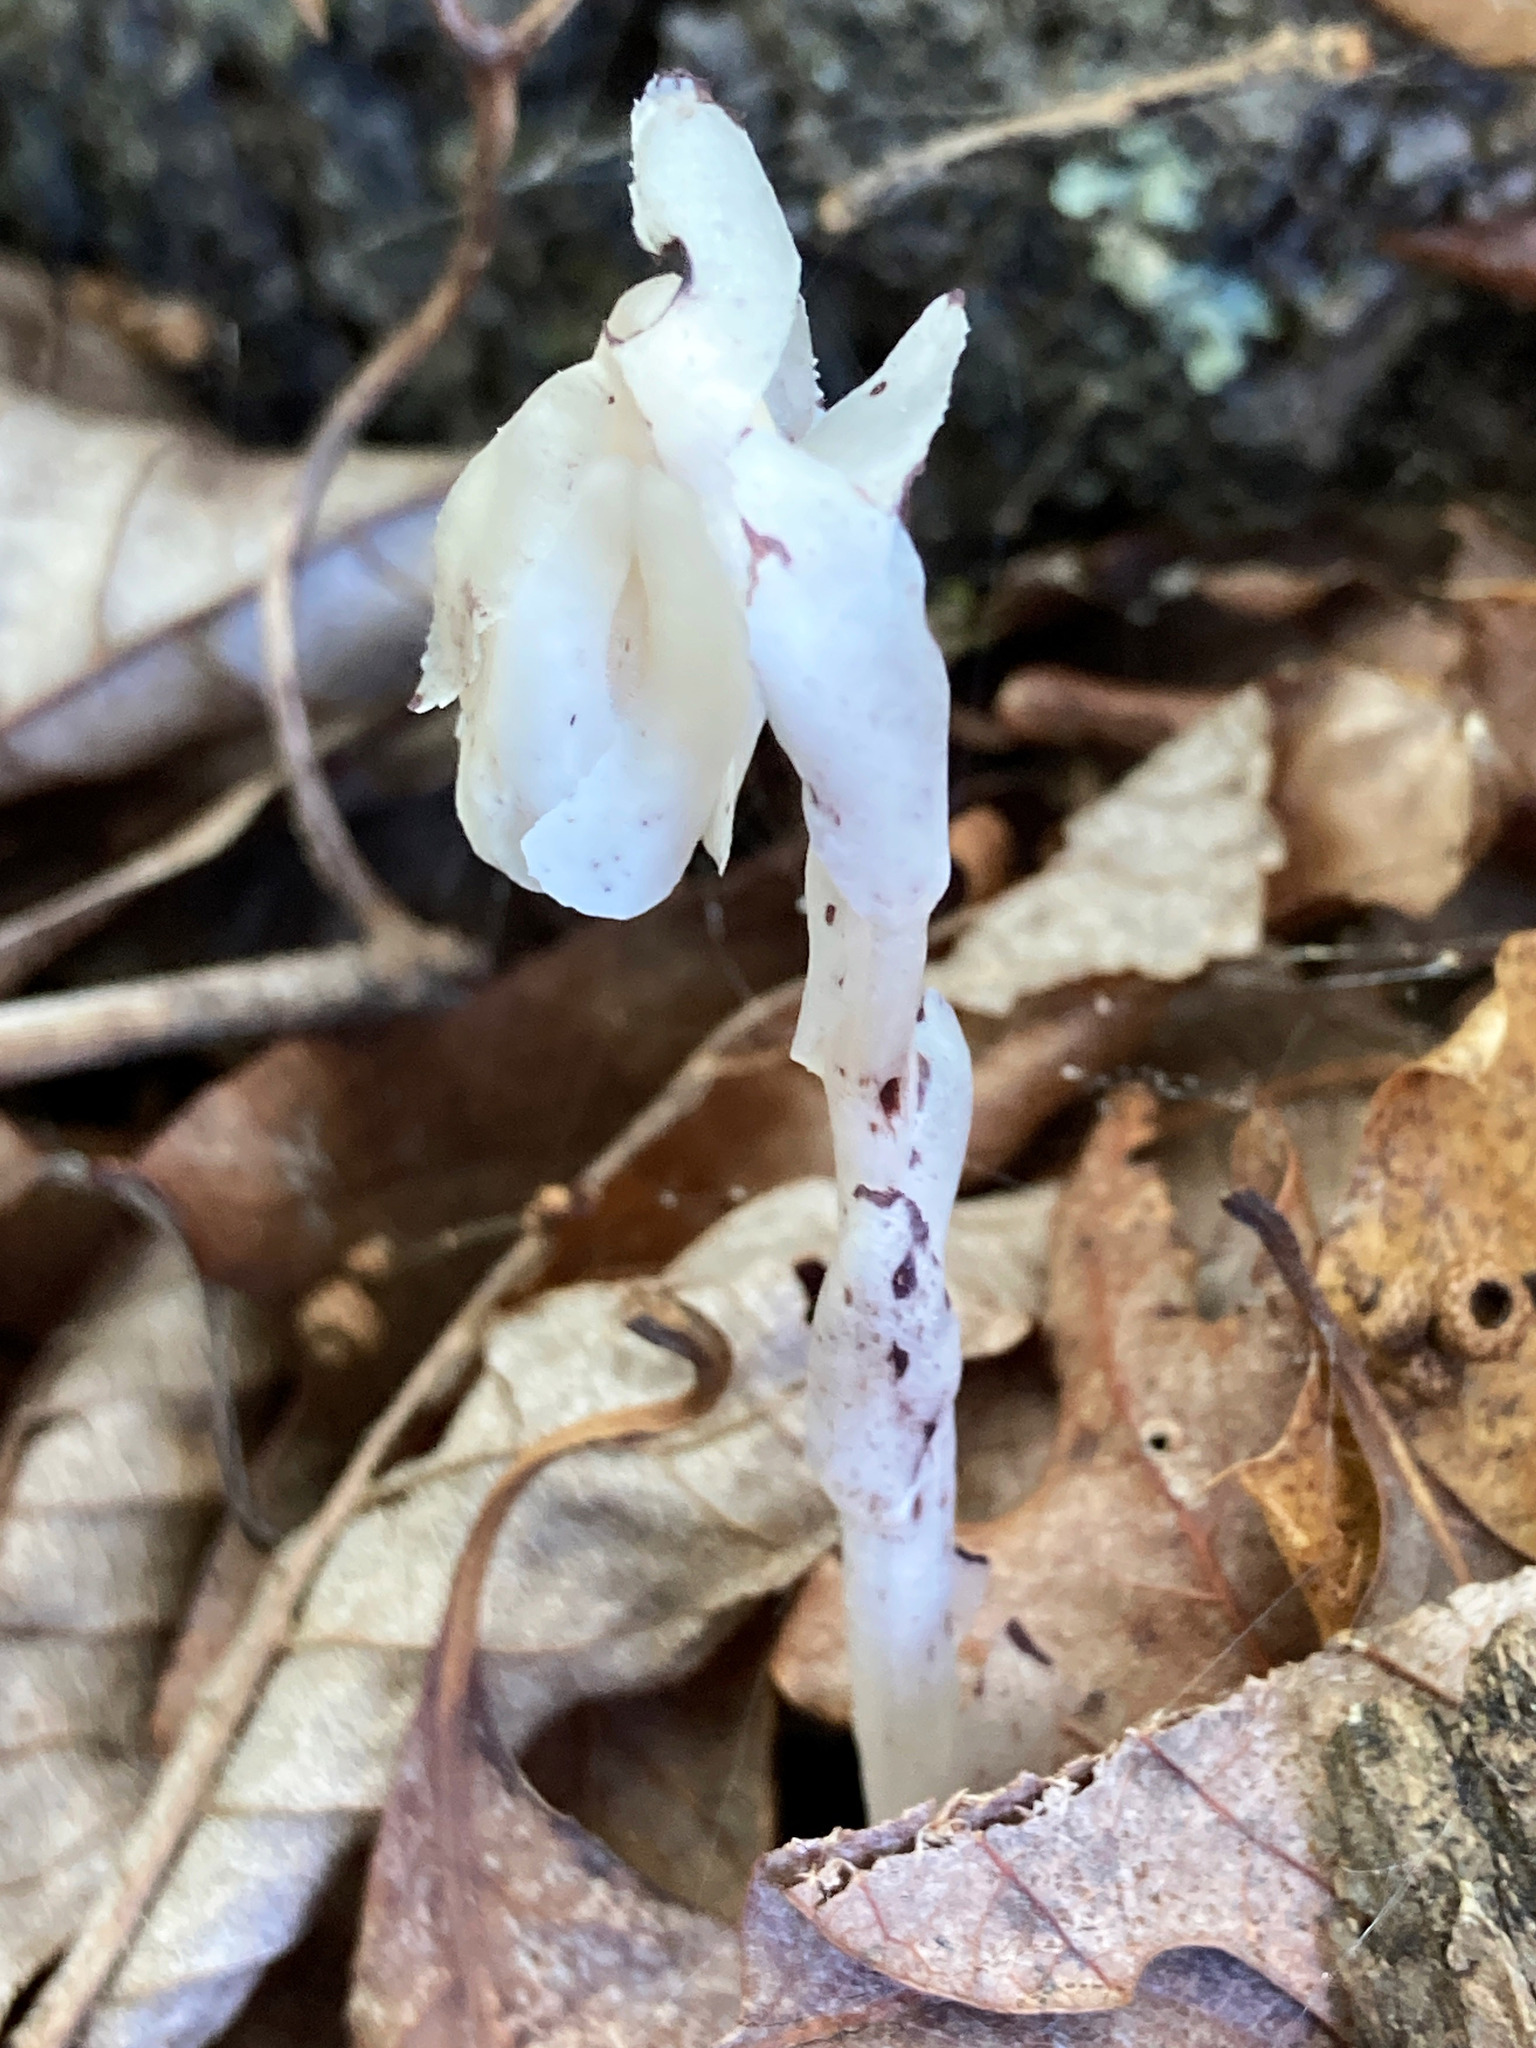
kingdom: Plantae
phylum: Tracheophyta
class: Magnoliopsida
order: Ericales
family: Ericaceae
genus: Monotropa
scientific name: Monotropa uniflora
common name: Convulsion root
